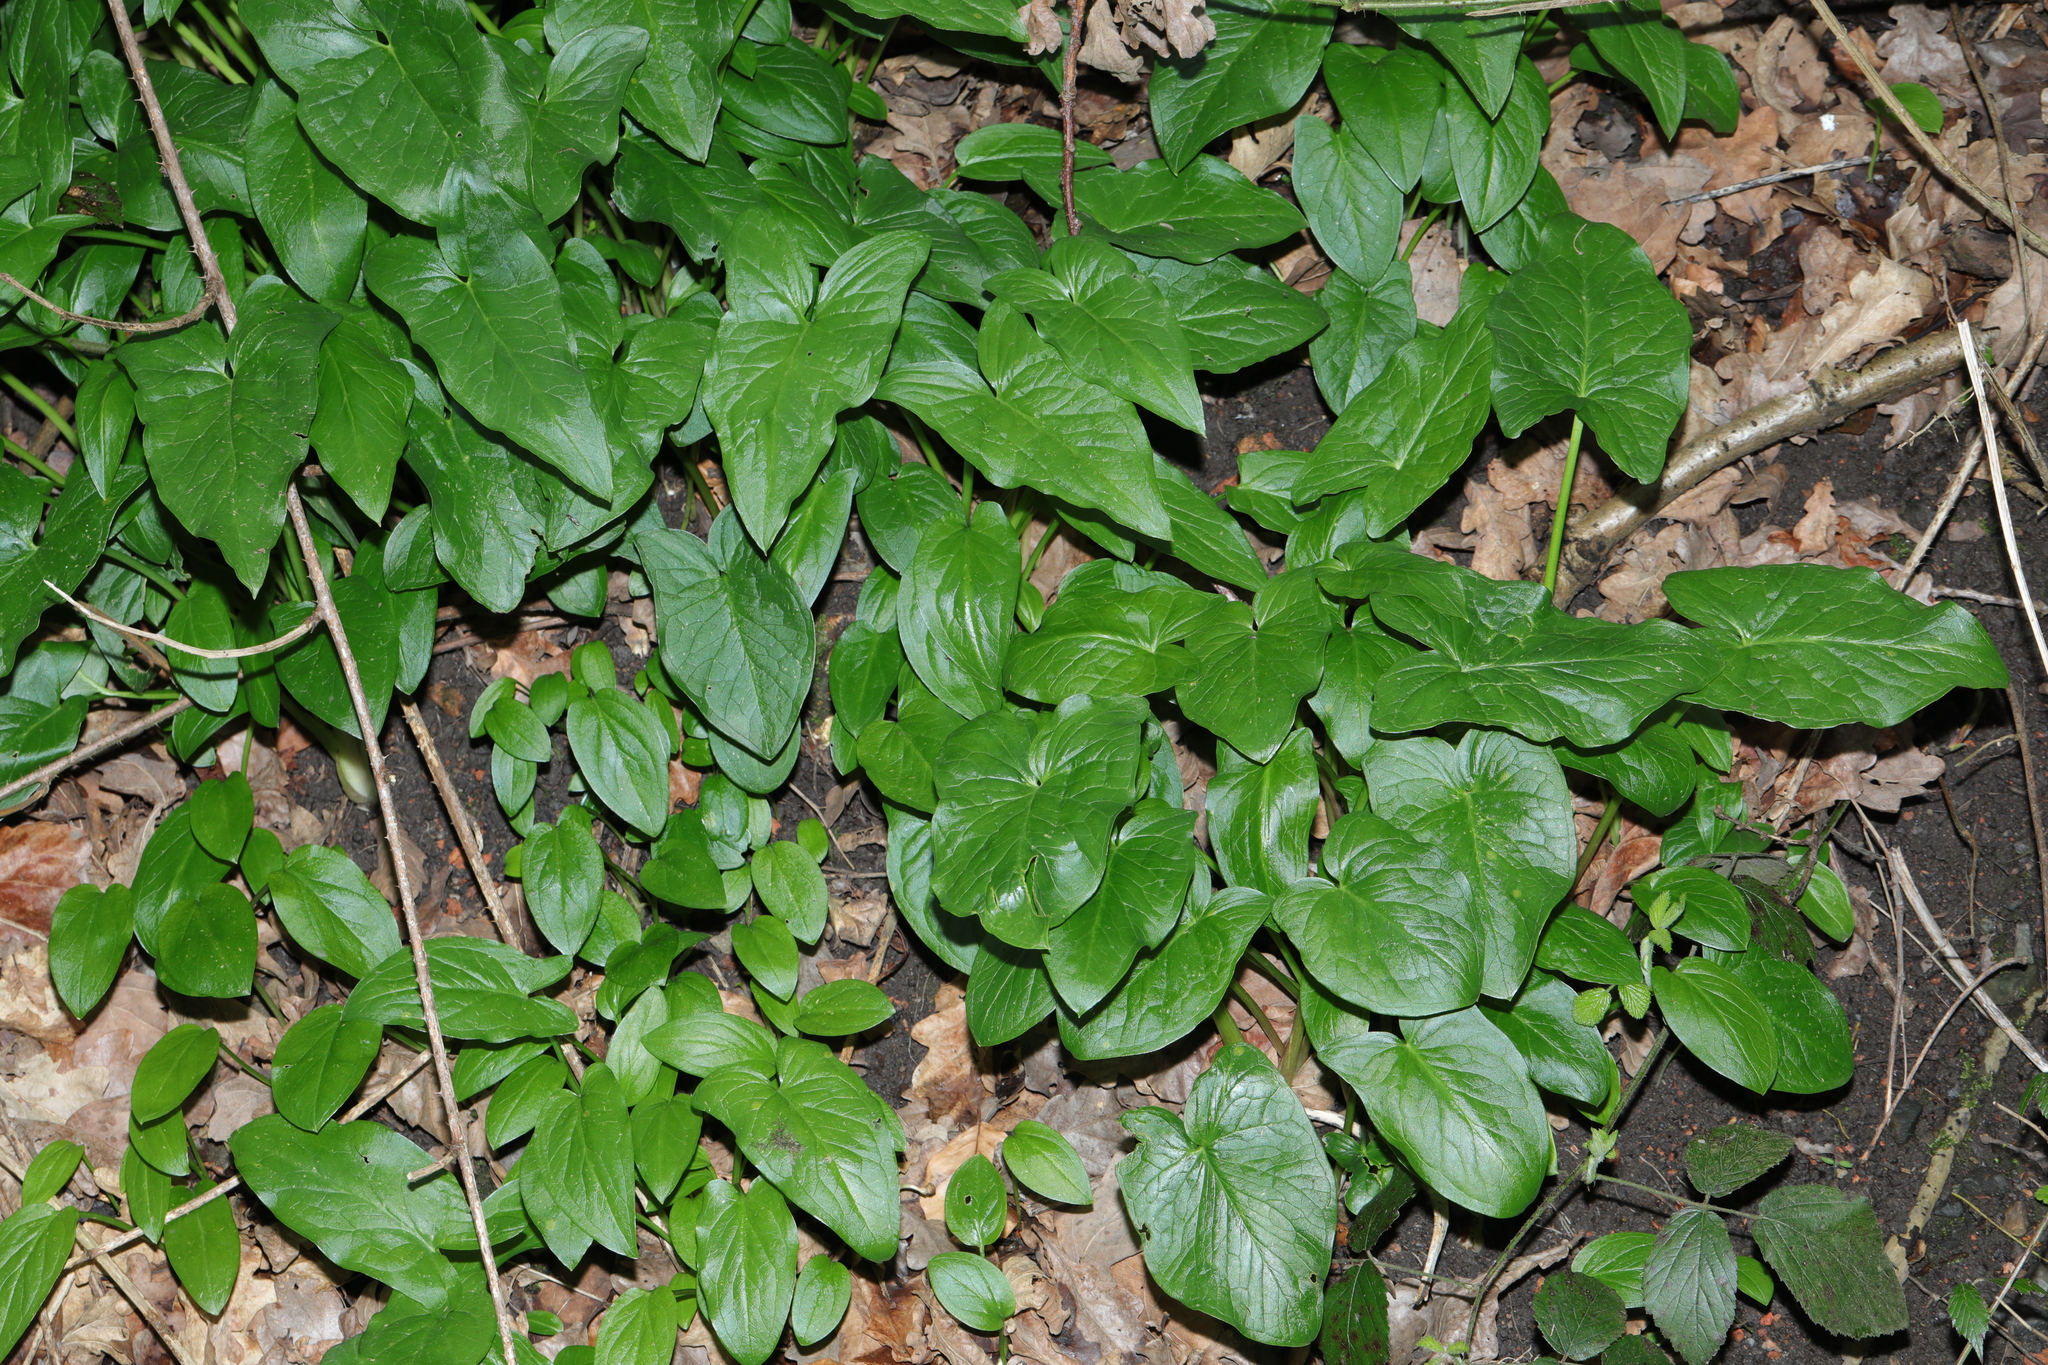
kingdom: Plantae
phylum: Tracheophyta
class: Liliopsida
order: Alismatales
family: Araceae
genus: Arum
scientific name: Arum maculatum
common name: Lords-and-ladies
